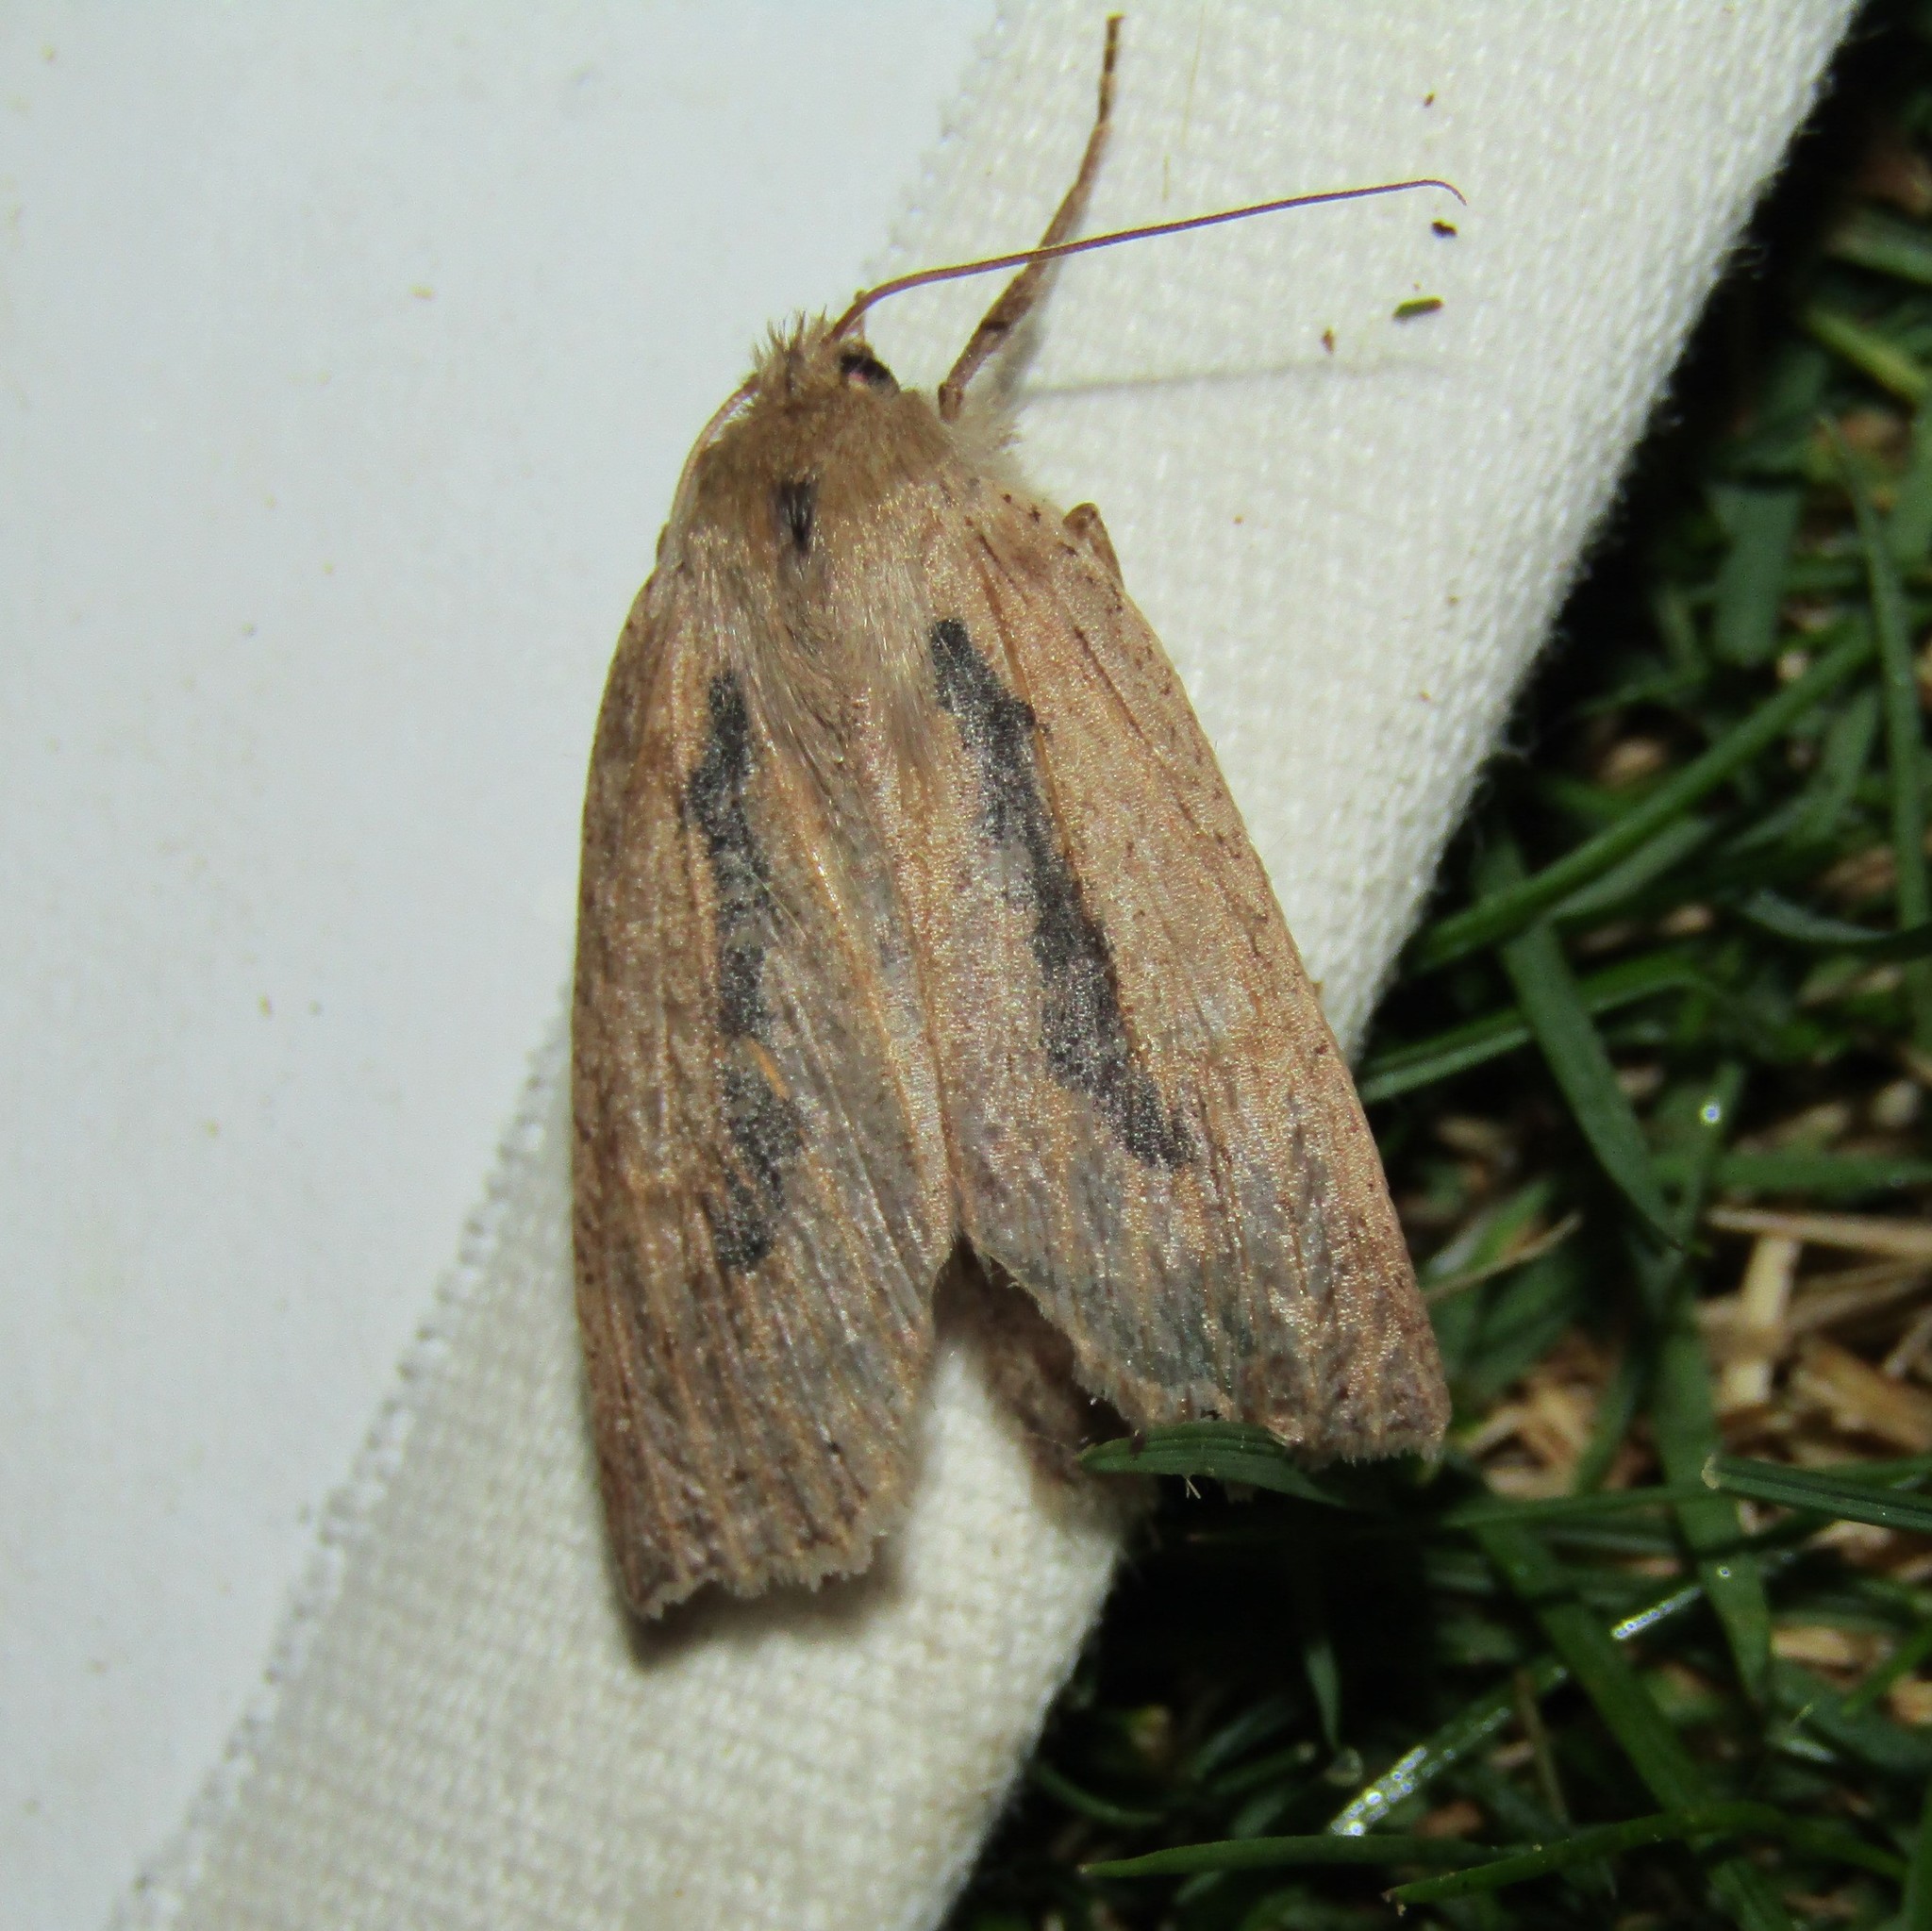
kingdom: Animalia
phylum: Arthropoda
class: Insecta
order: Lepidoptera
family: Geometridae
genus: Declana
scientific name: Declana leptomera
